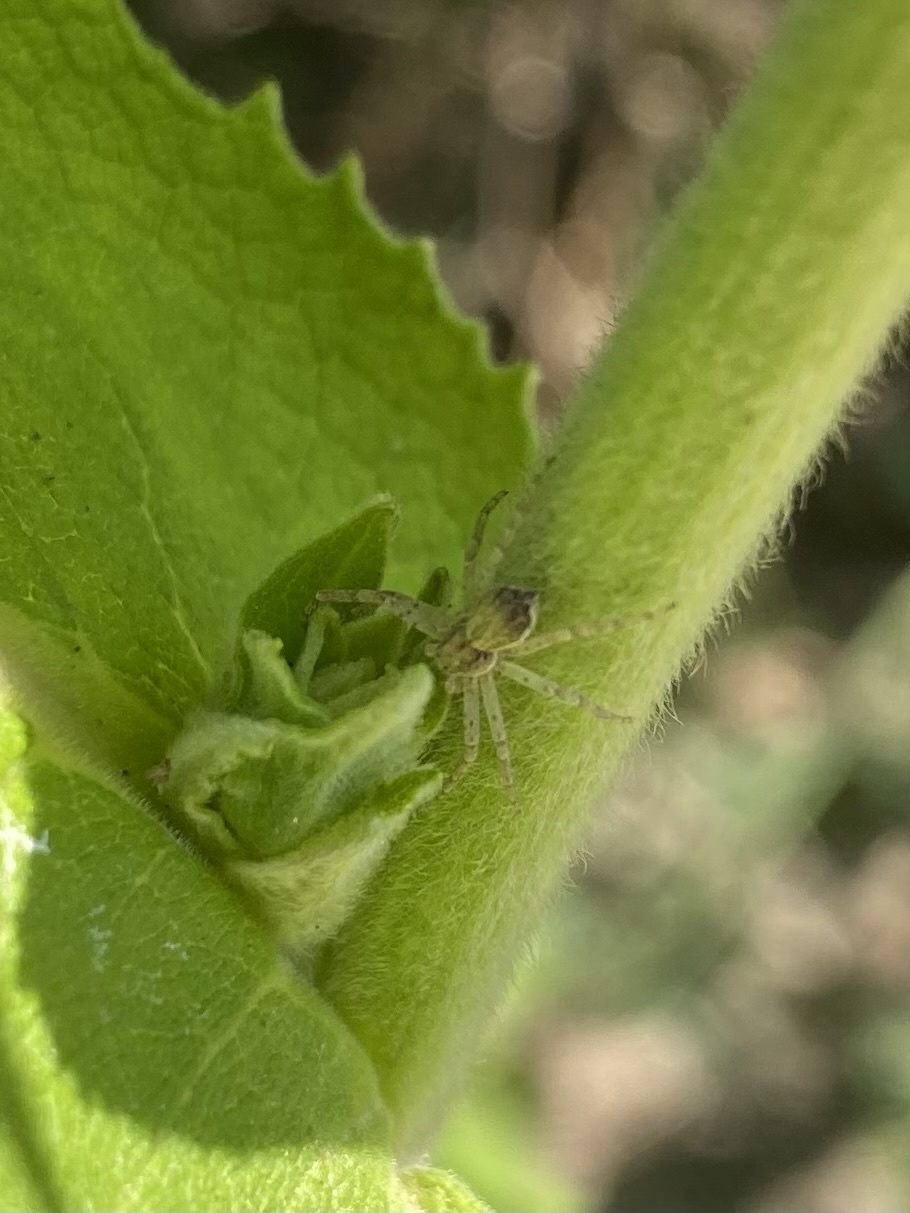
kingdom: Animalia
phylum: Arthropoda
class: Arachnida
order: Araneae
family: Philodromidae
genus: Philodromus
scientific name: Philodromus dispar
